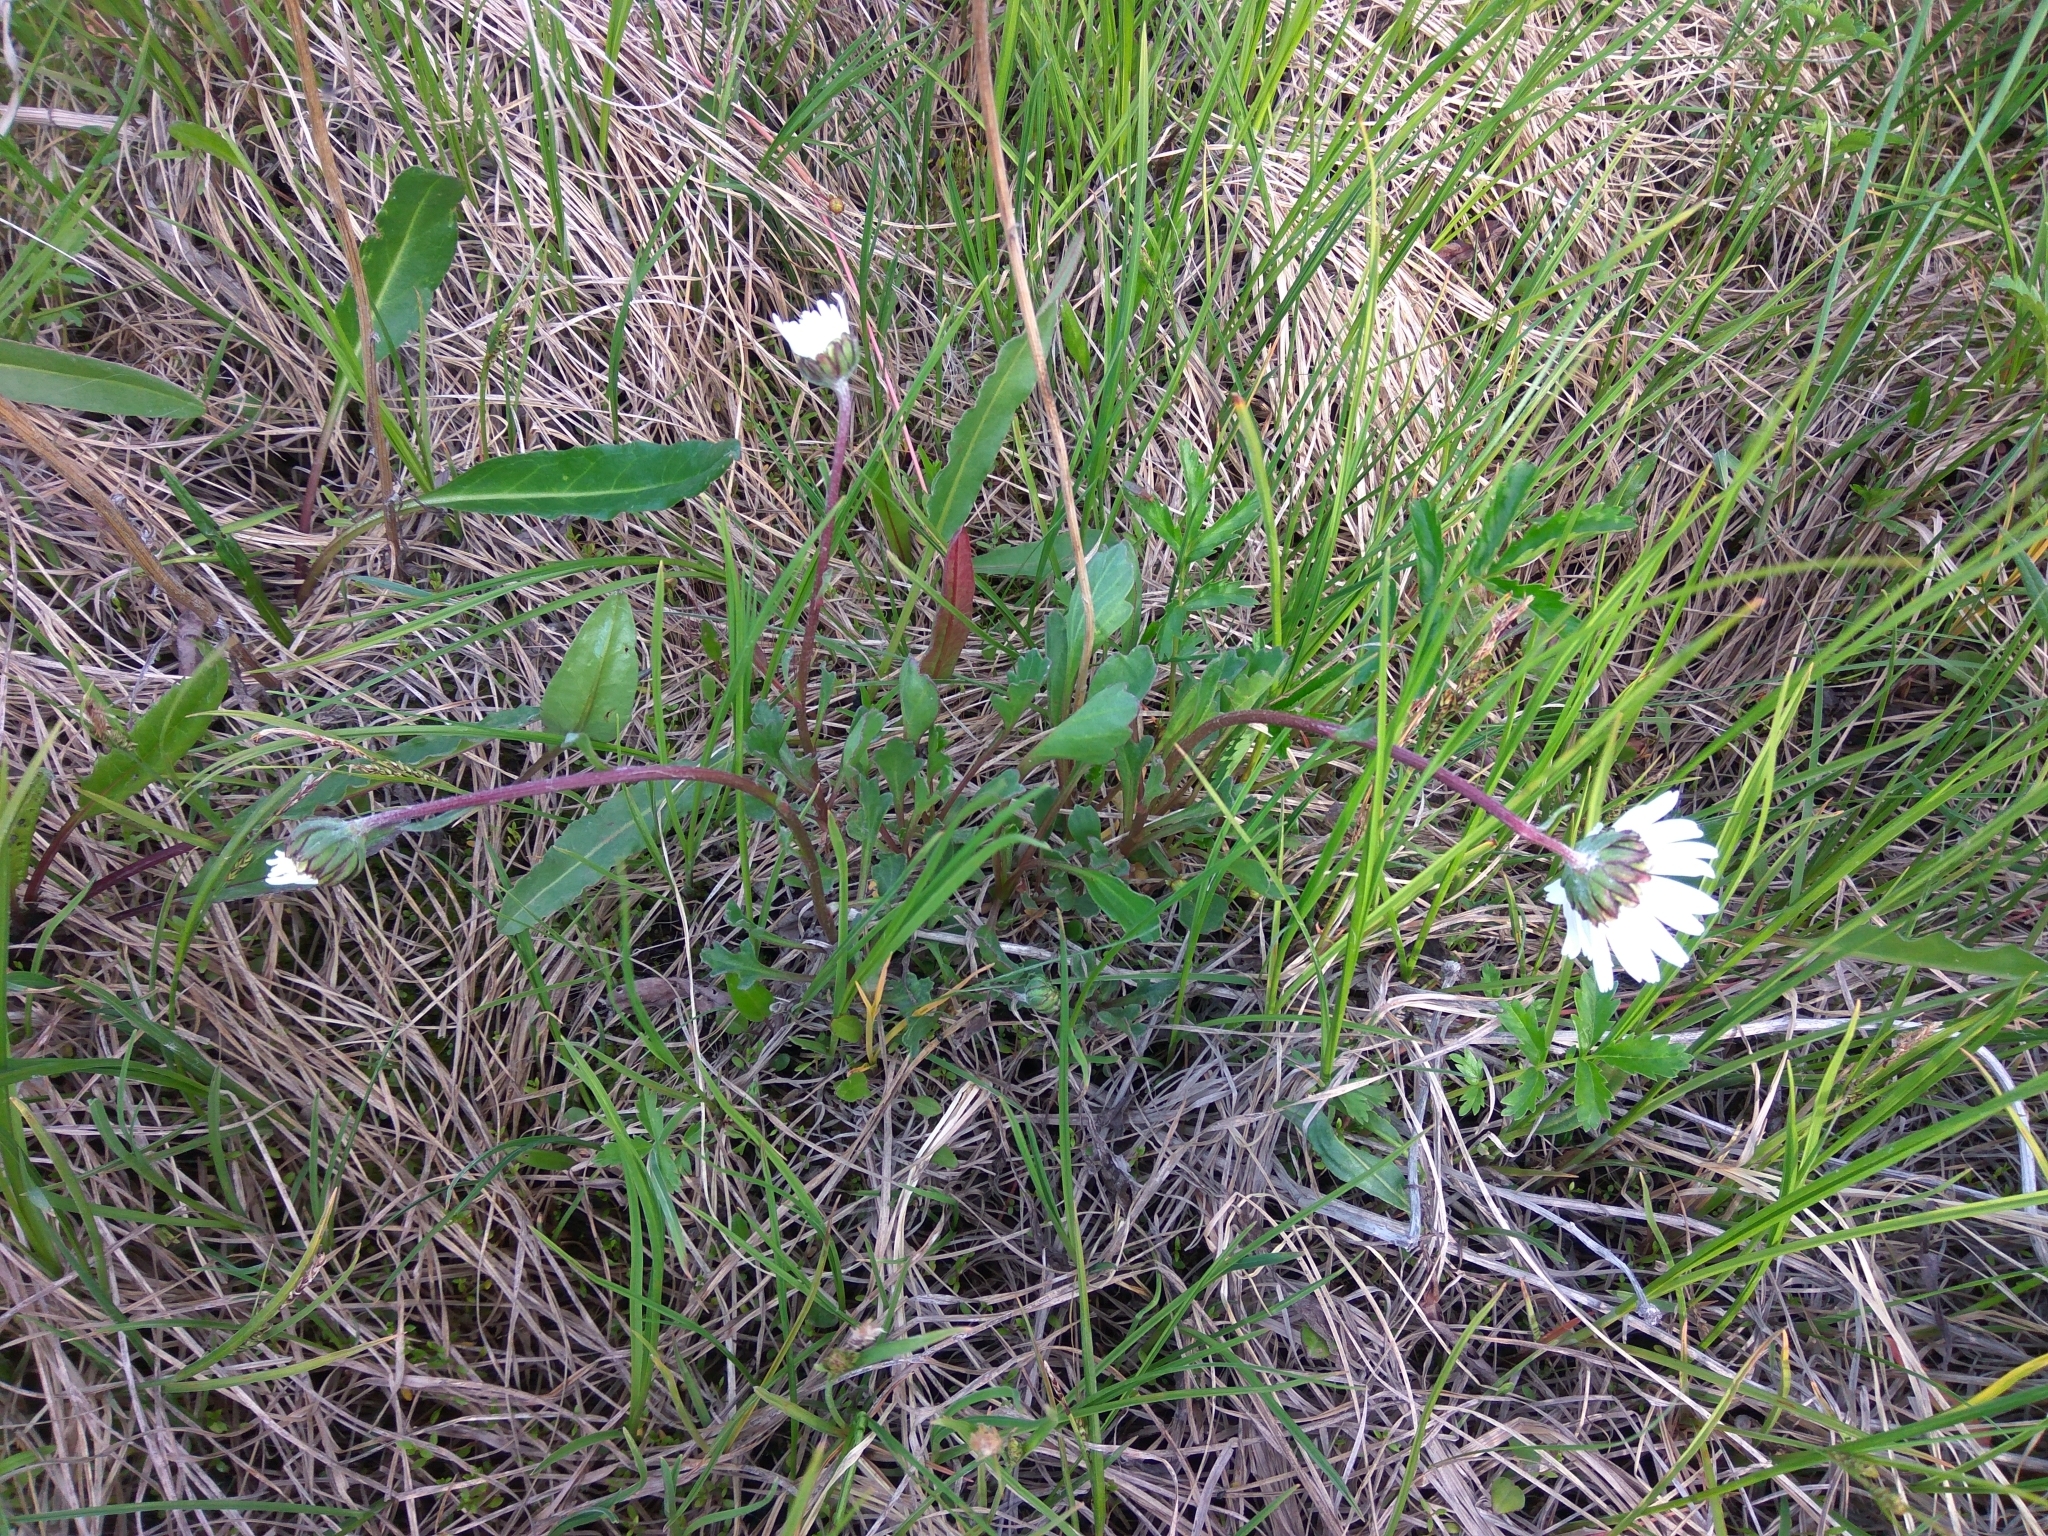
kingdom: Plantae
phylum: Tracheophyta
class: Magnoliopsida
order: Asterales
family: Asteraceae
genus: Arctanthemum
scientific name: Arctanthemum arcticum
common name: Arctic daisy
